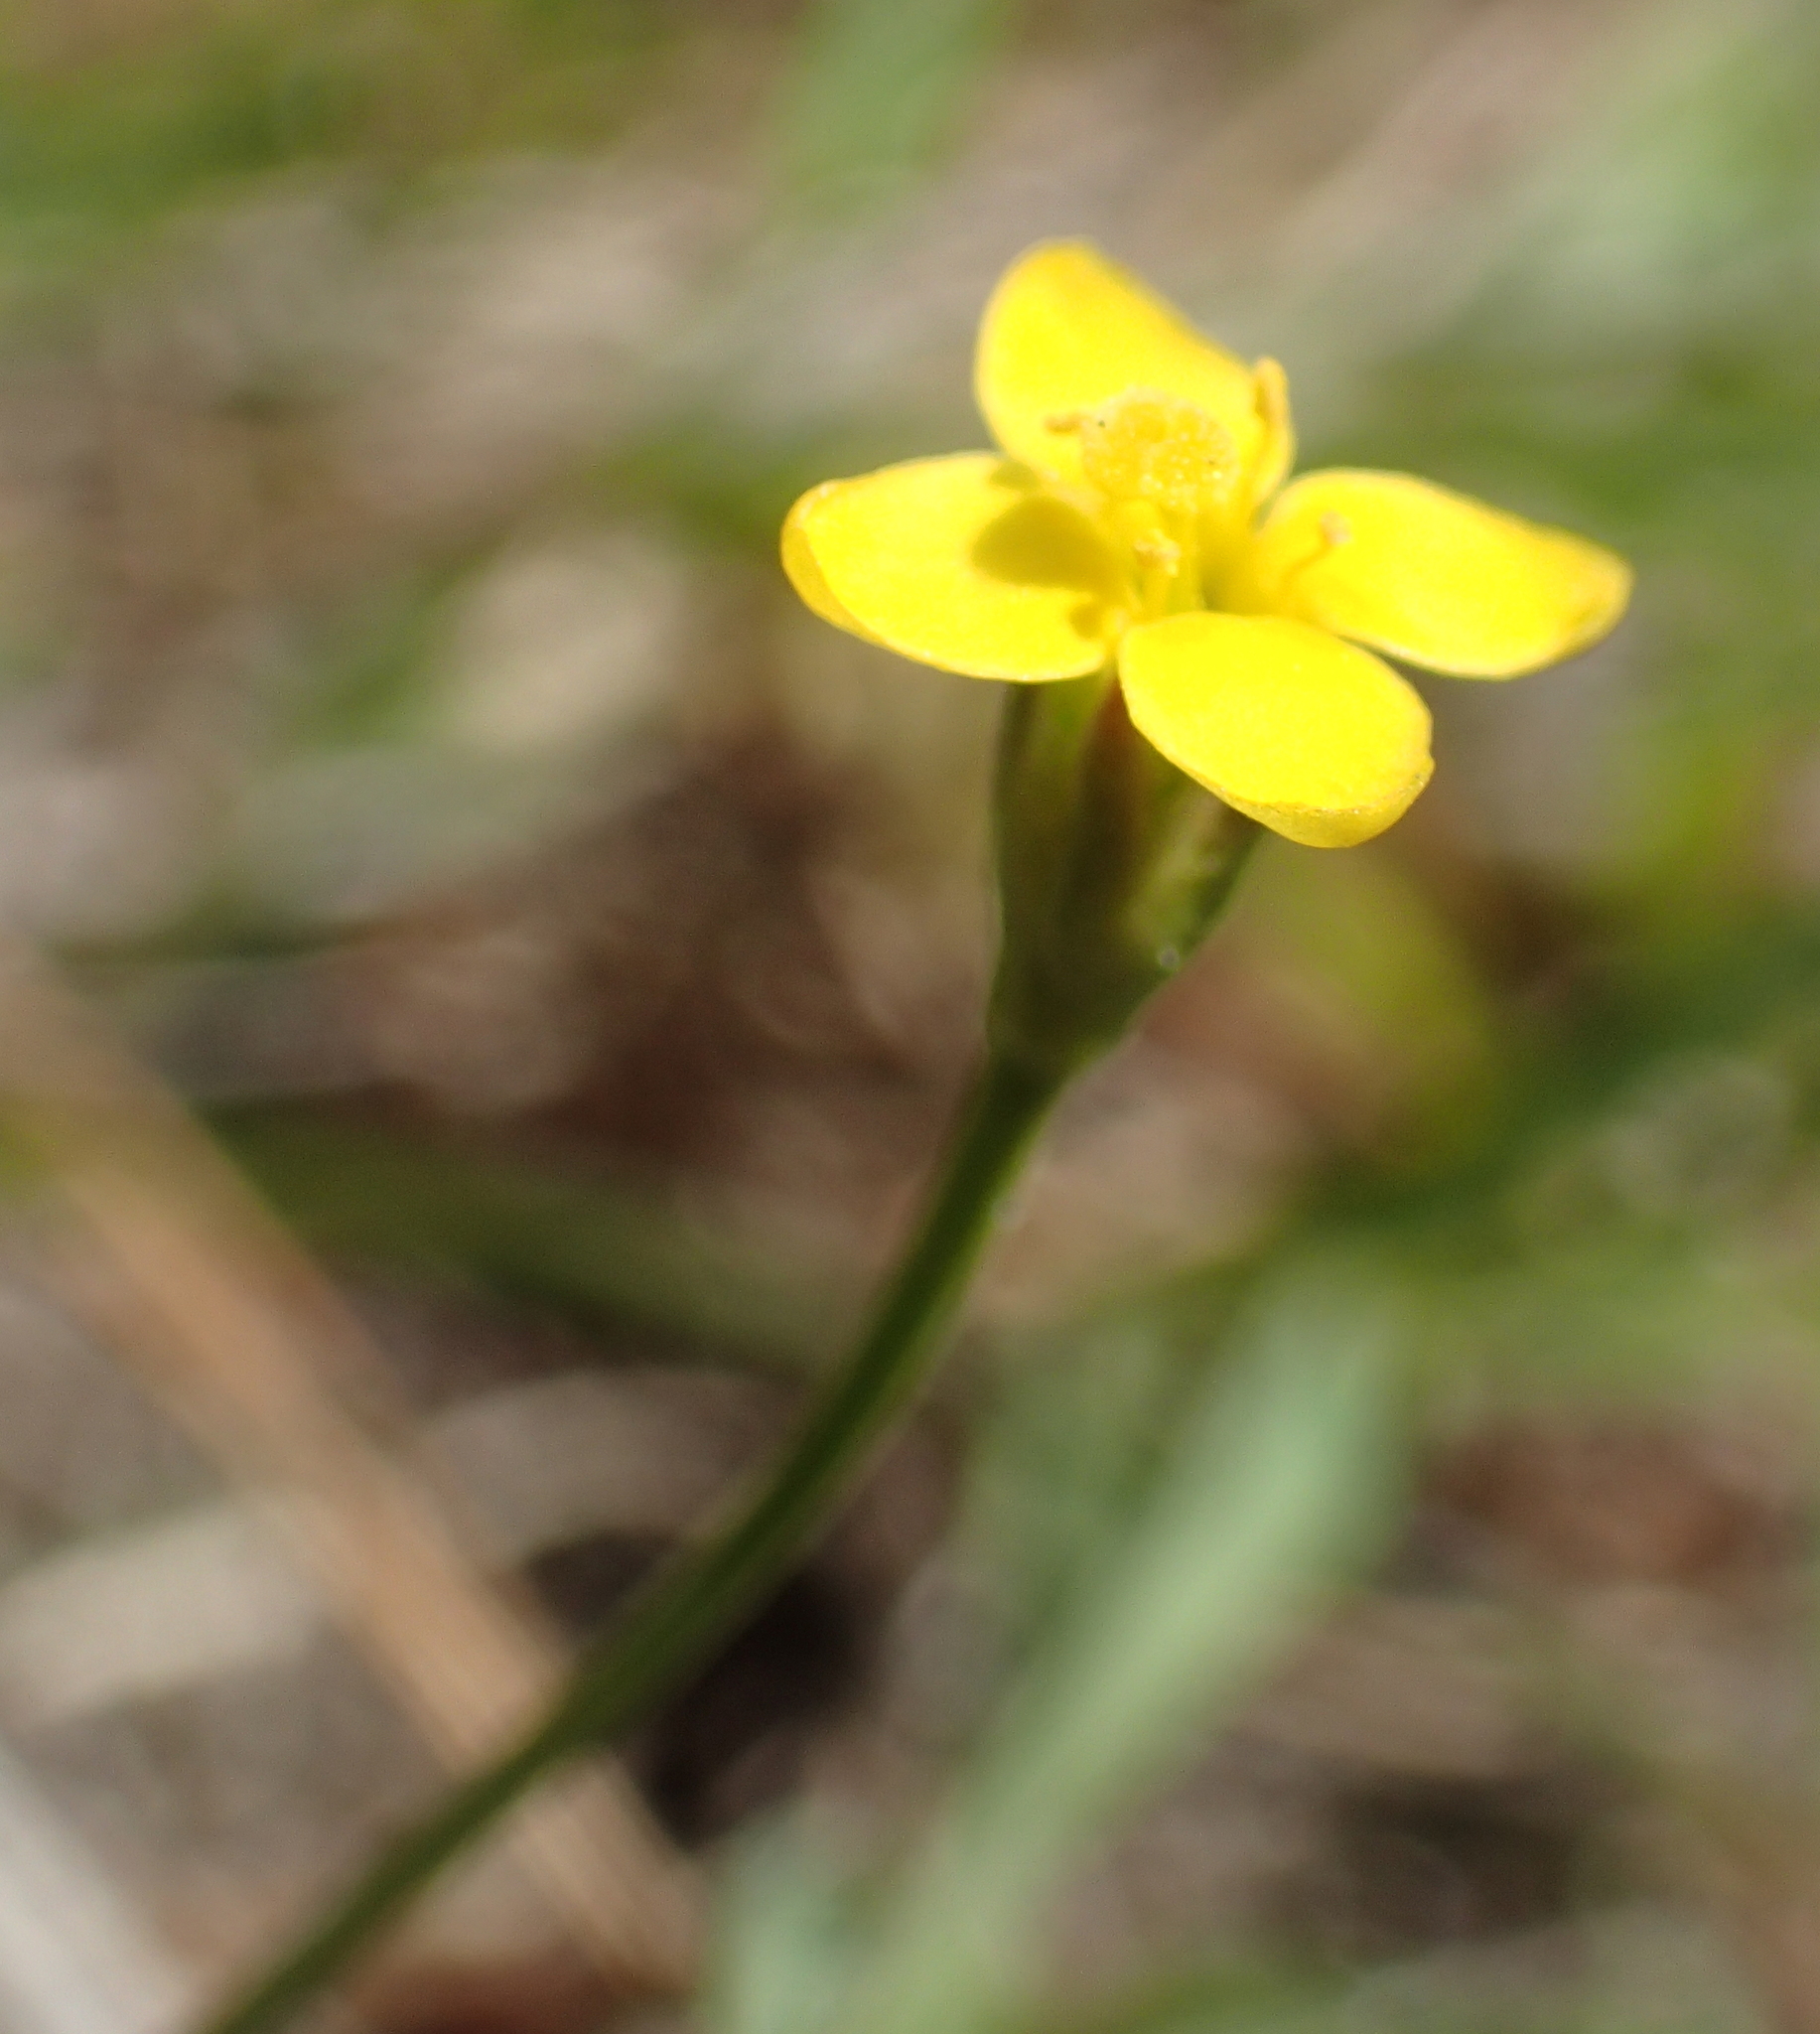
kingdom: Plantae
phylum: Tracheophyta
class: Magnoliopsida
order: Gentianales
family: Gentianaceae
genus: Cicendia
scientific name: Cicendia filiformis
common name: Yellow centaury
